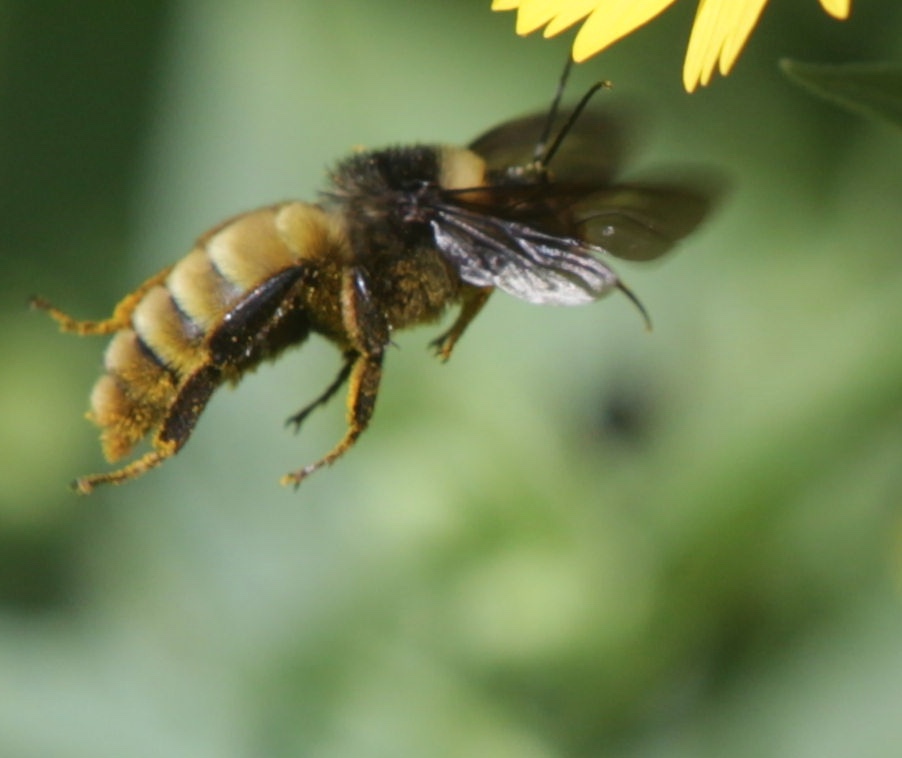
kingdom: Animalia
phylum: Arthropoda
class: Insecta
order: Hymenoptera
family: Apidae
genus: Bombus
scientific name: Bombus pensylvanicus
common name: Bumble bee
